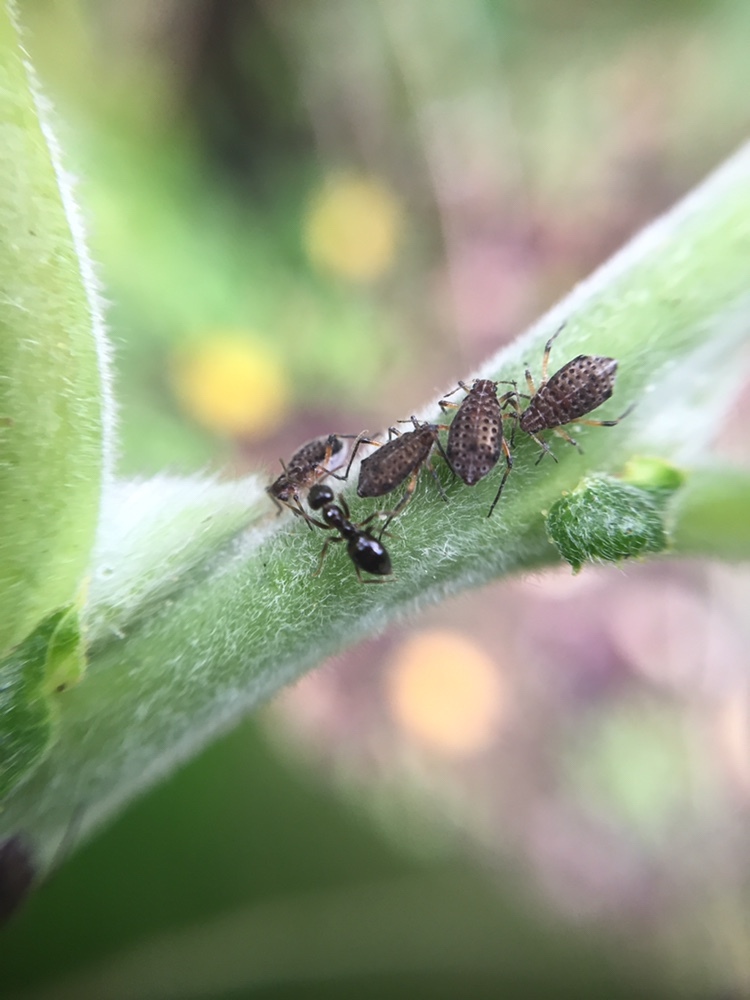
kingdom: Animalia
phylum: Arthropoda
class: Insecta
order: Hemiptera
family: Aphididae
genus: Tuberolachnus
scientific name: Tuberolachnus salignus
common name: Giant willow aphid
